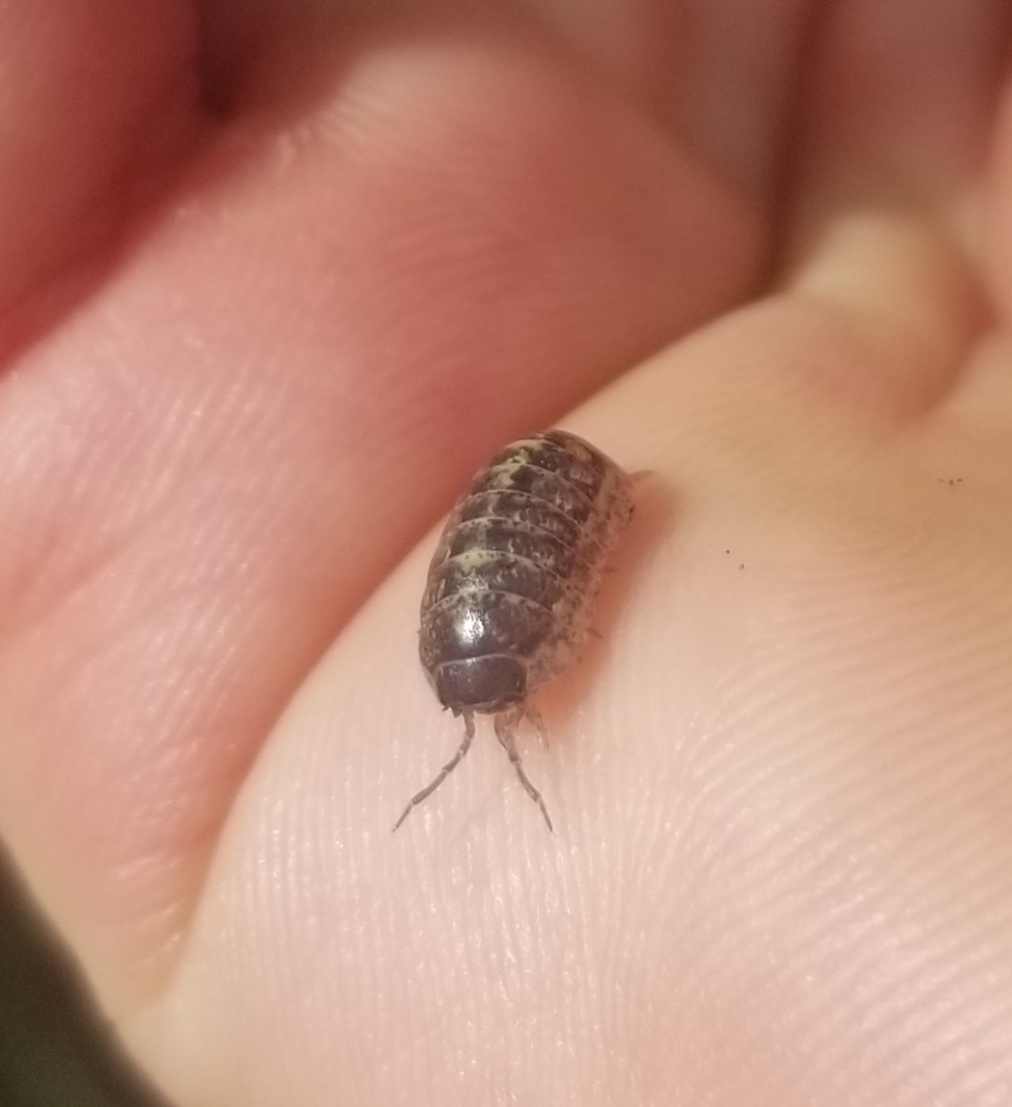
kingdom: Animalia
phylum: Arthropoda
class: Malacostraca
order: Isopoda
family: Armadillidiidae
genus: Armadillidium
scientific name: Armadillidium vulgare
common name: Common pill woodlouse
